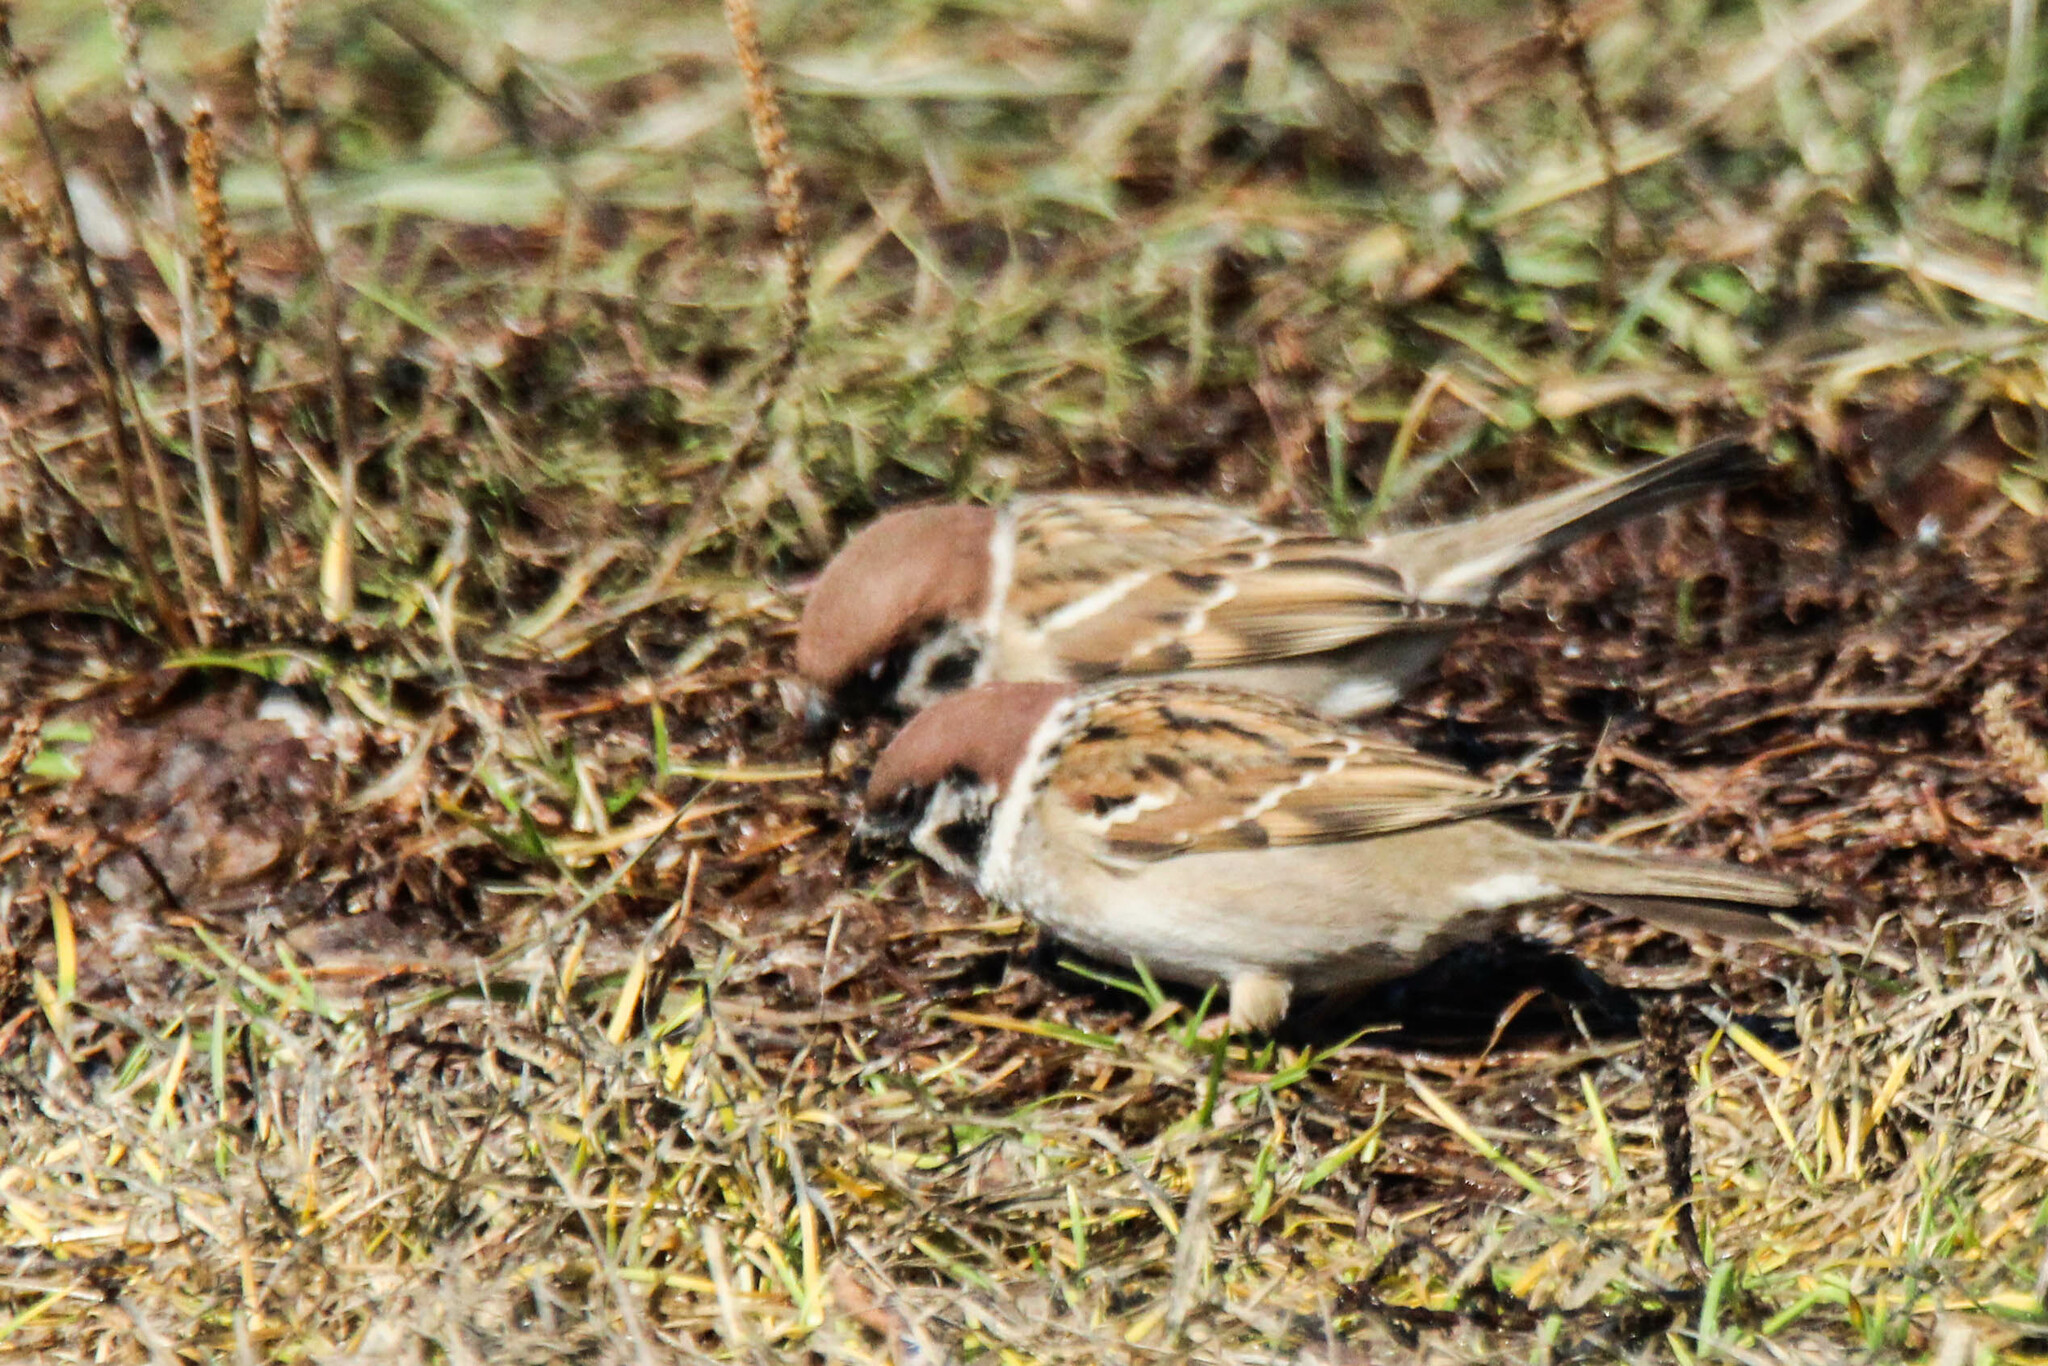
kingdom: Animalia
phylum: Chordata
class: Aves
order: Passeriformes
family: Passeridae
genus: Passer
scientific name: Passer montanus
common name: Eurasian tree sparrow
